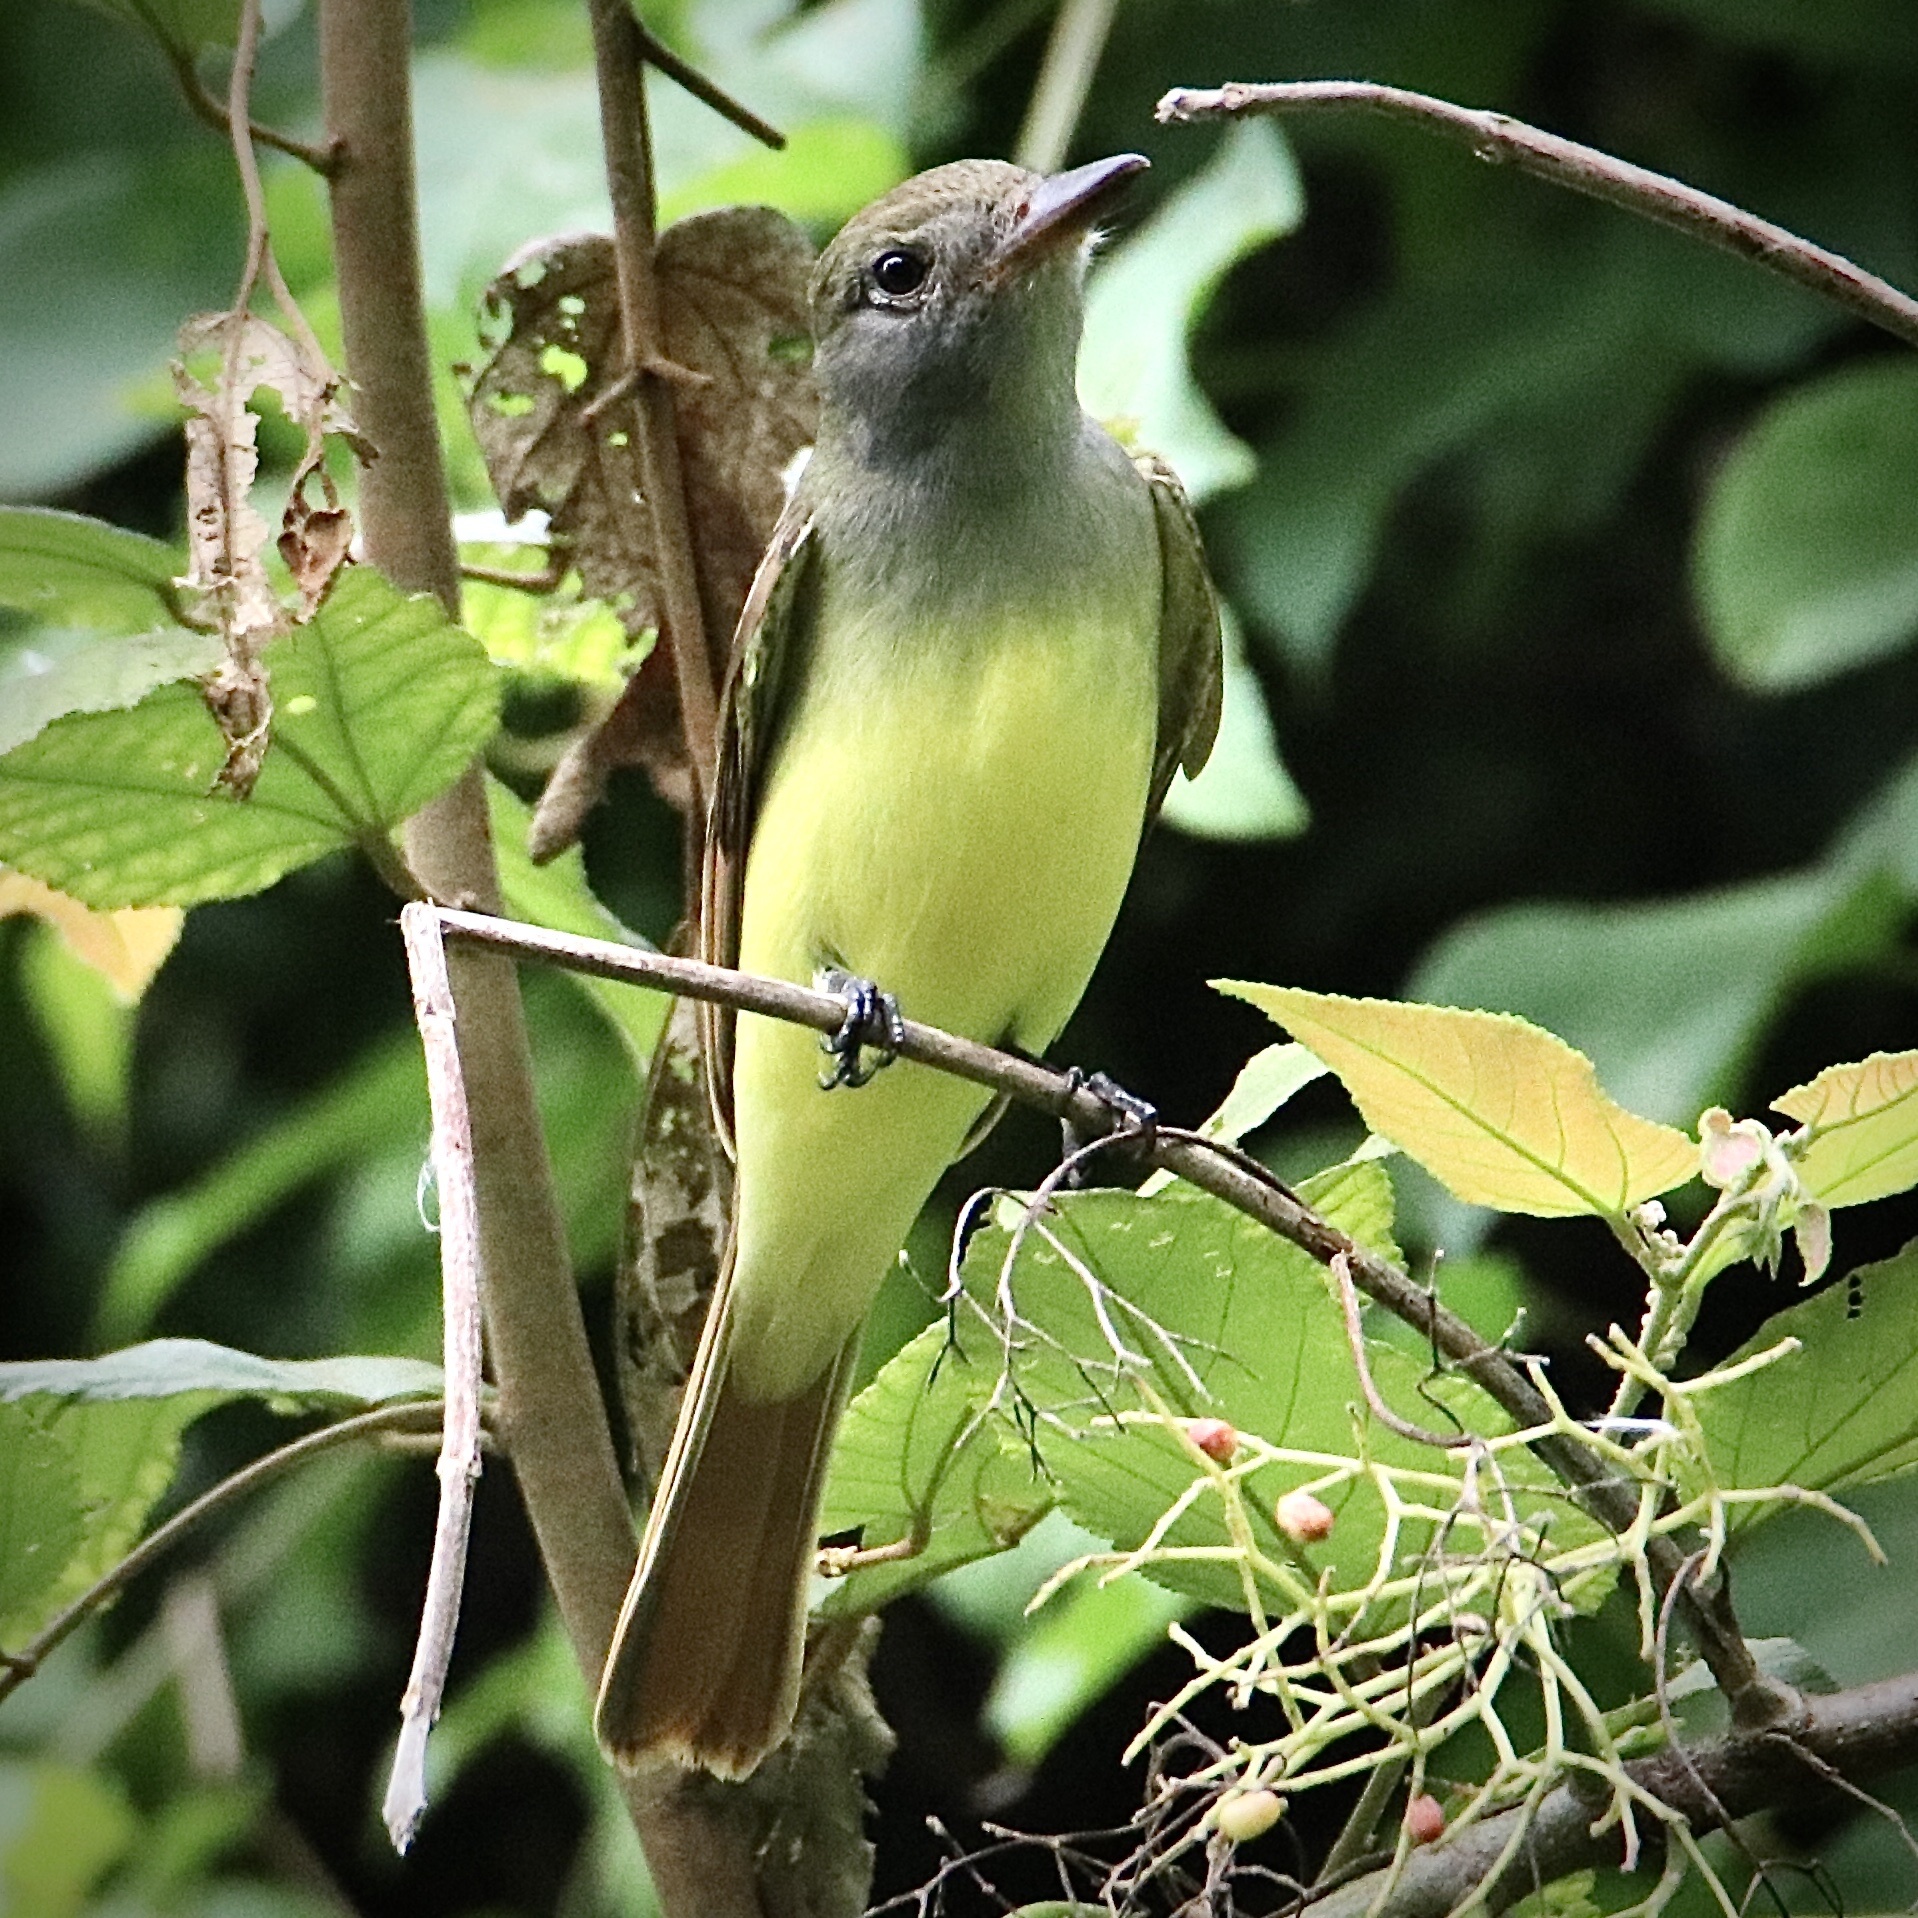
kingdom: Animalia
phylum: Chordata
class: Aves
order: Passeriformes
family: Tyrannidae
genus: Myiarchus
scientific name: Myiarchus tuberculifer
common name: Dusky-capped flycatcher
